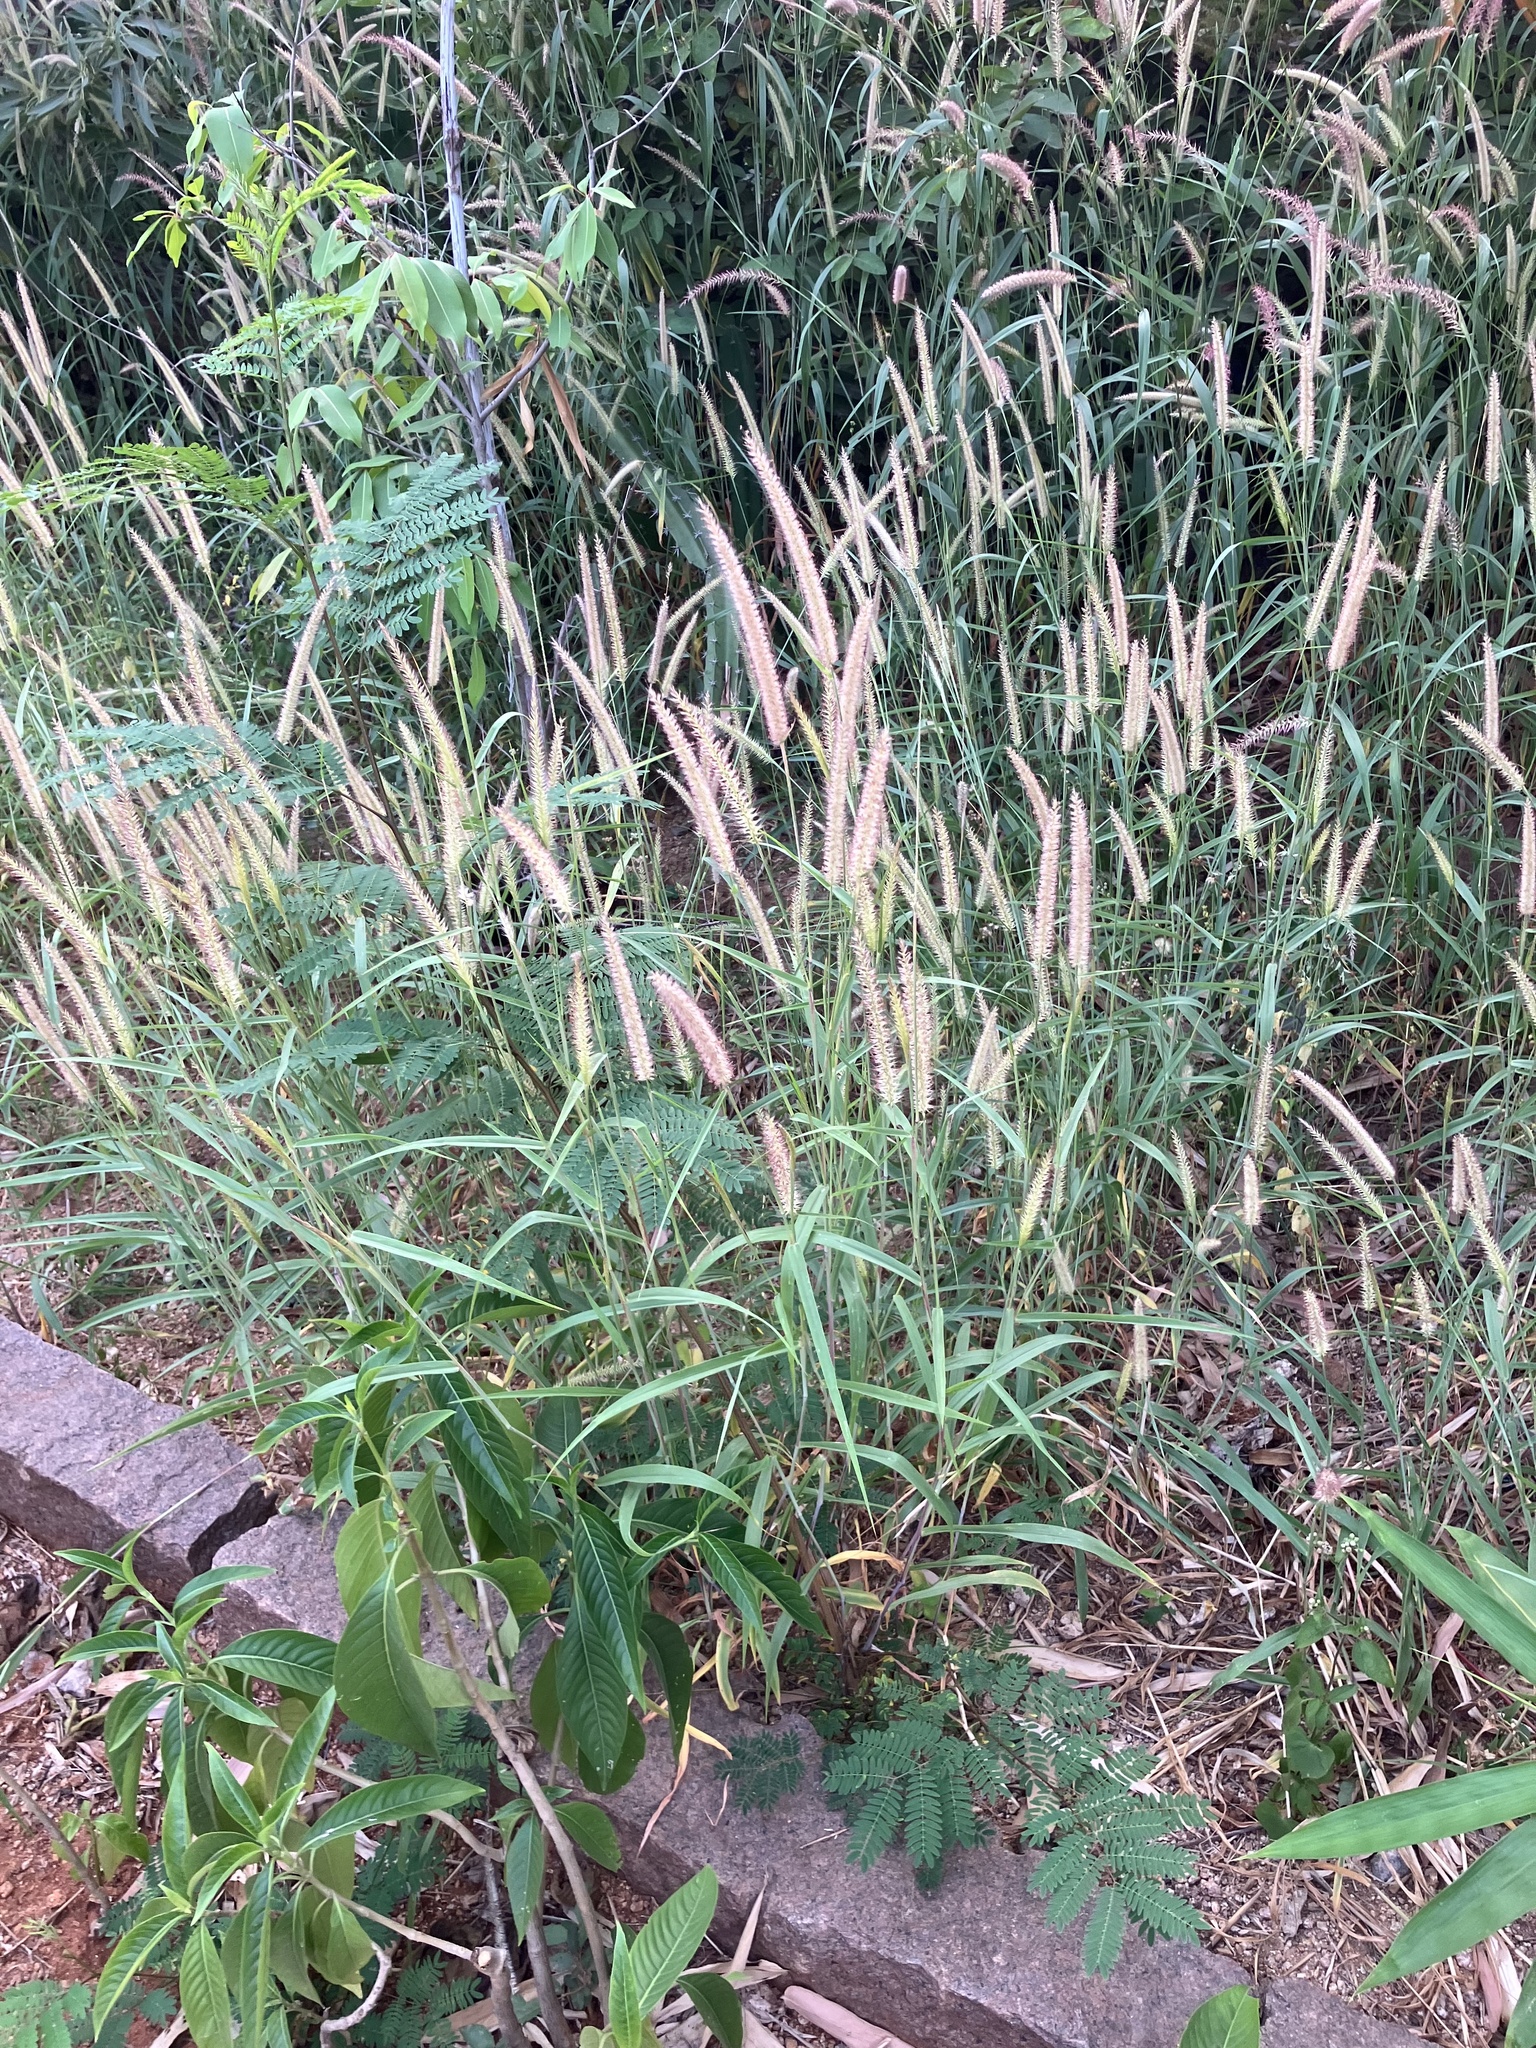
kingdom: Plantae
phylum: Tracheophyta
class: Liliopsida
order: Poales
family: Poaceae
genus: Cenchrus
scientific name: Cenchrus ciliaris
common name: Buffelgrass
